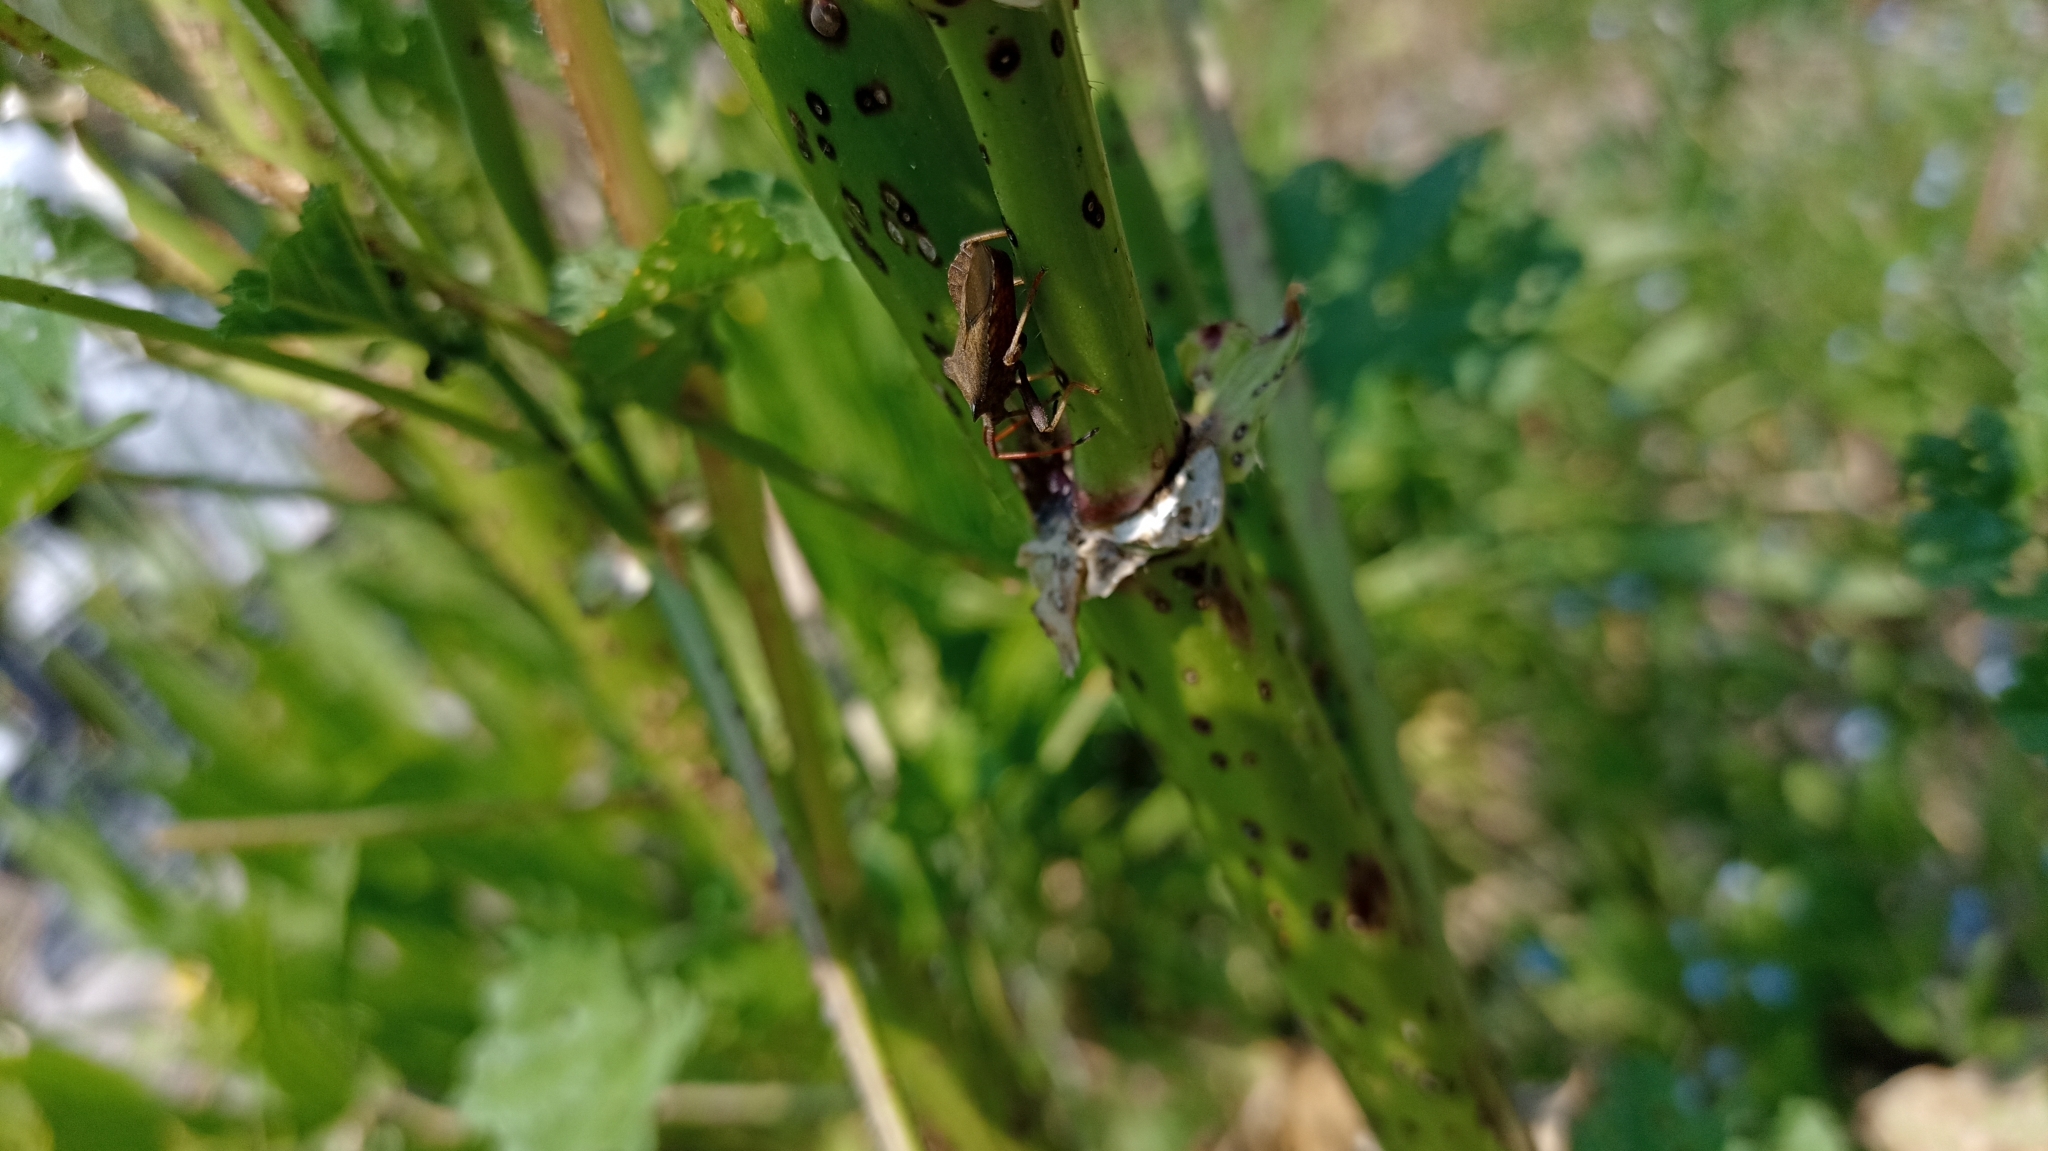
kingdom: Animalia
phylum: Arthropoda
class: Insecta
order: Hemiptera
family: Coreidae
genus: Coreus
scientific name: Coreus marginatus
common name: Dock bug
